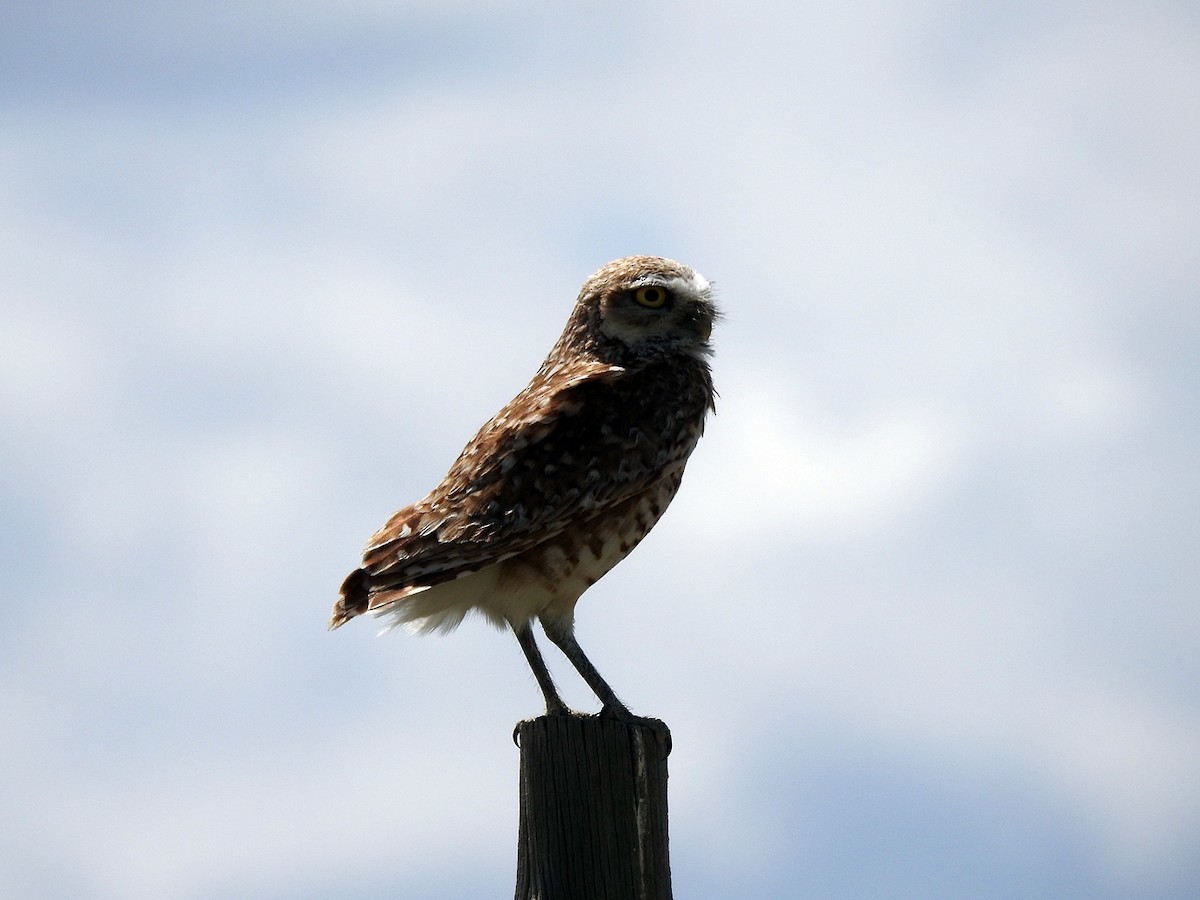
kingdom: Animalia
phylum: Chordata
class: Aves
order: Strigiformes
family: Strigidae
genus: Athene
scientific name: Athene cunicularia
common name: Burrowing owl
